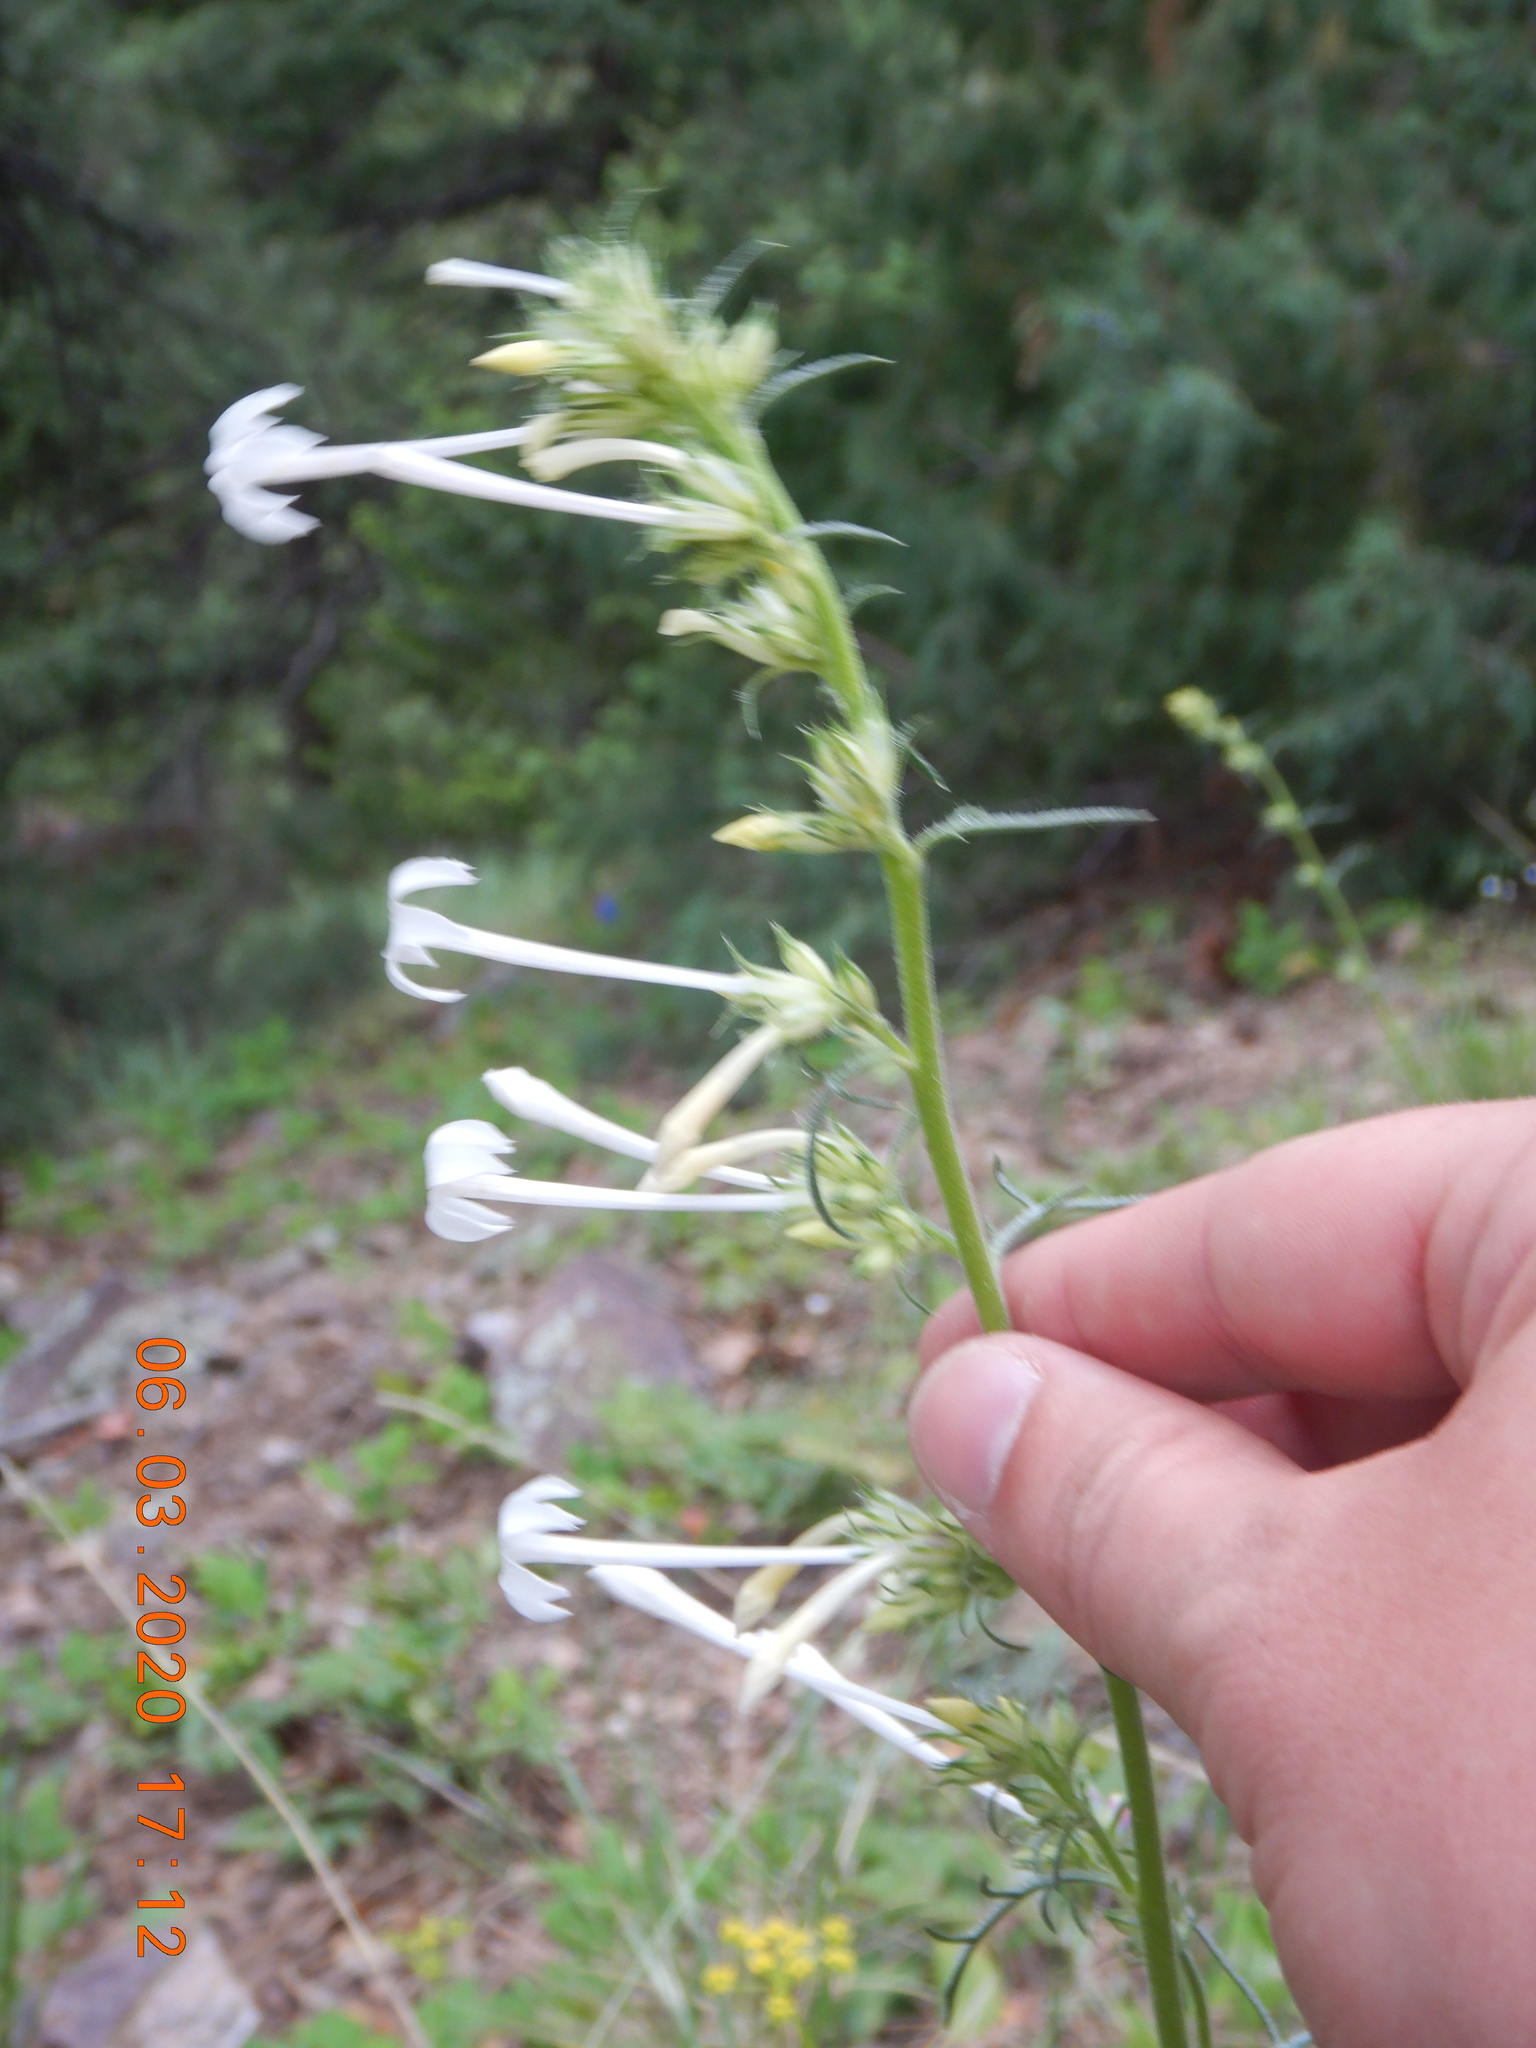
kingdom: Plantae
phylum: Tracheophyta
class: Magnoliopsida
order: Ericales
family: Polemoniaceae
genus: Ipomopsis
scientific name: Ipomopsis aggregata
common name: Scarlet gilia
